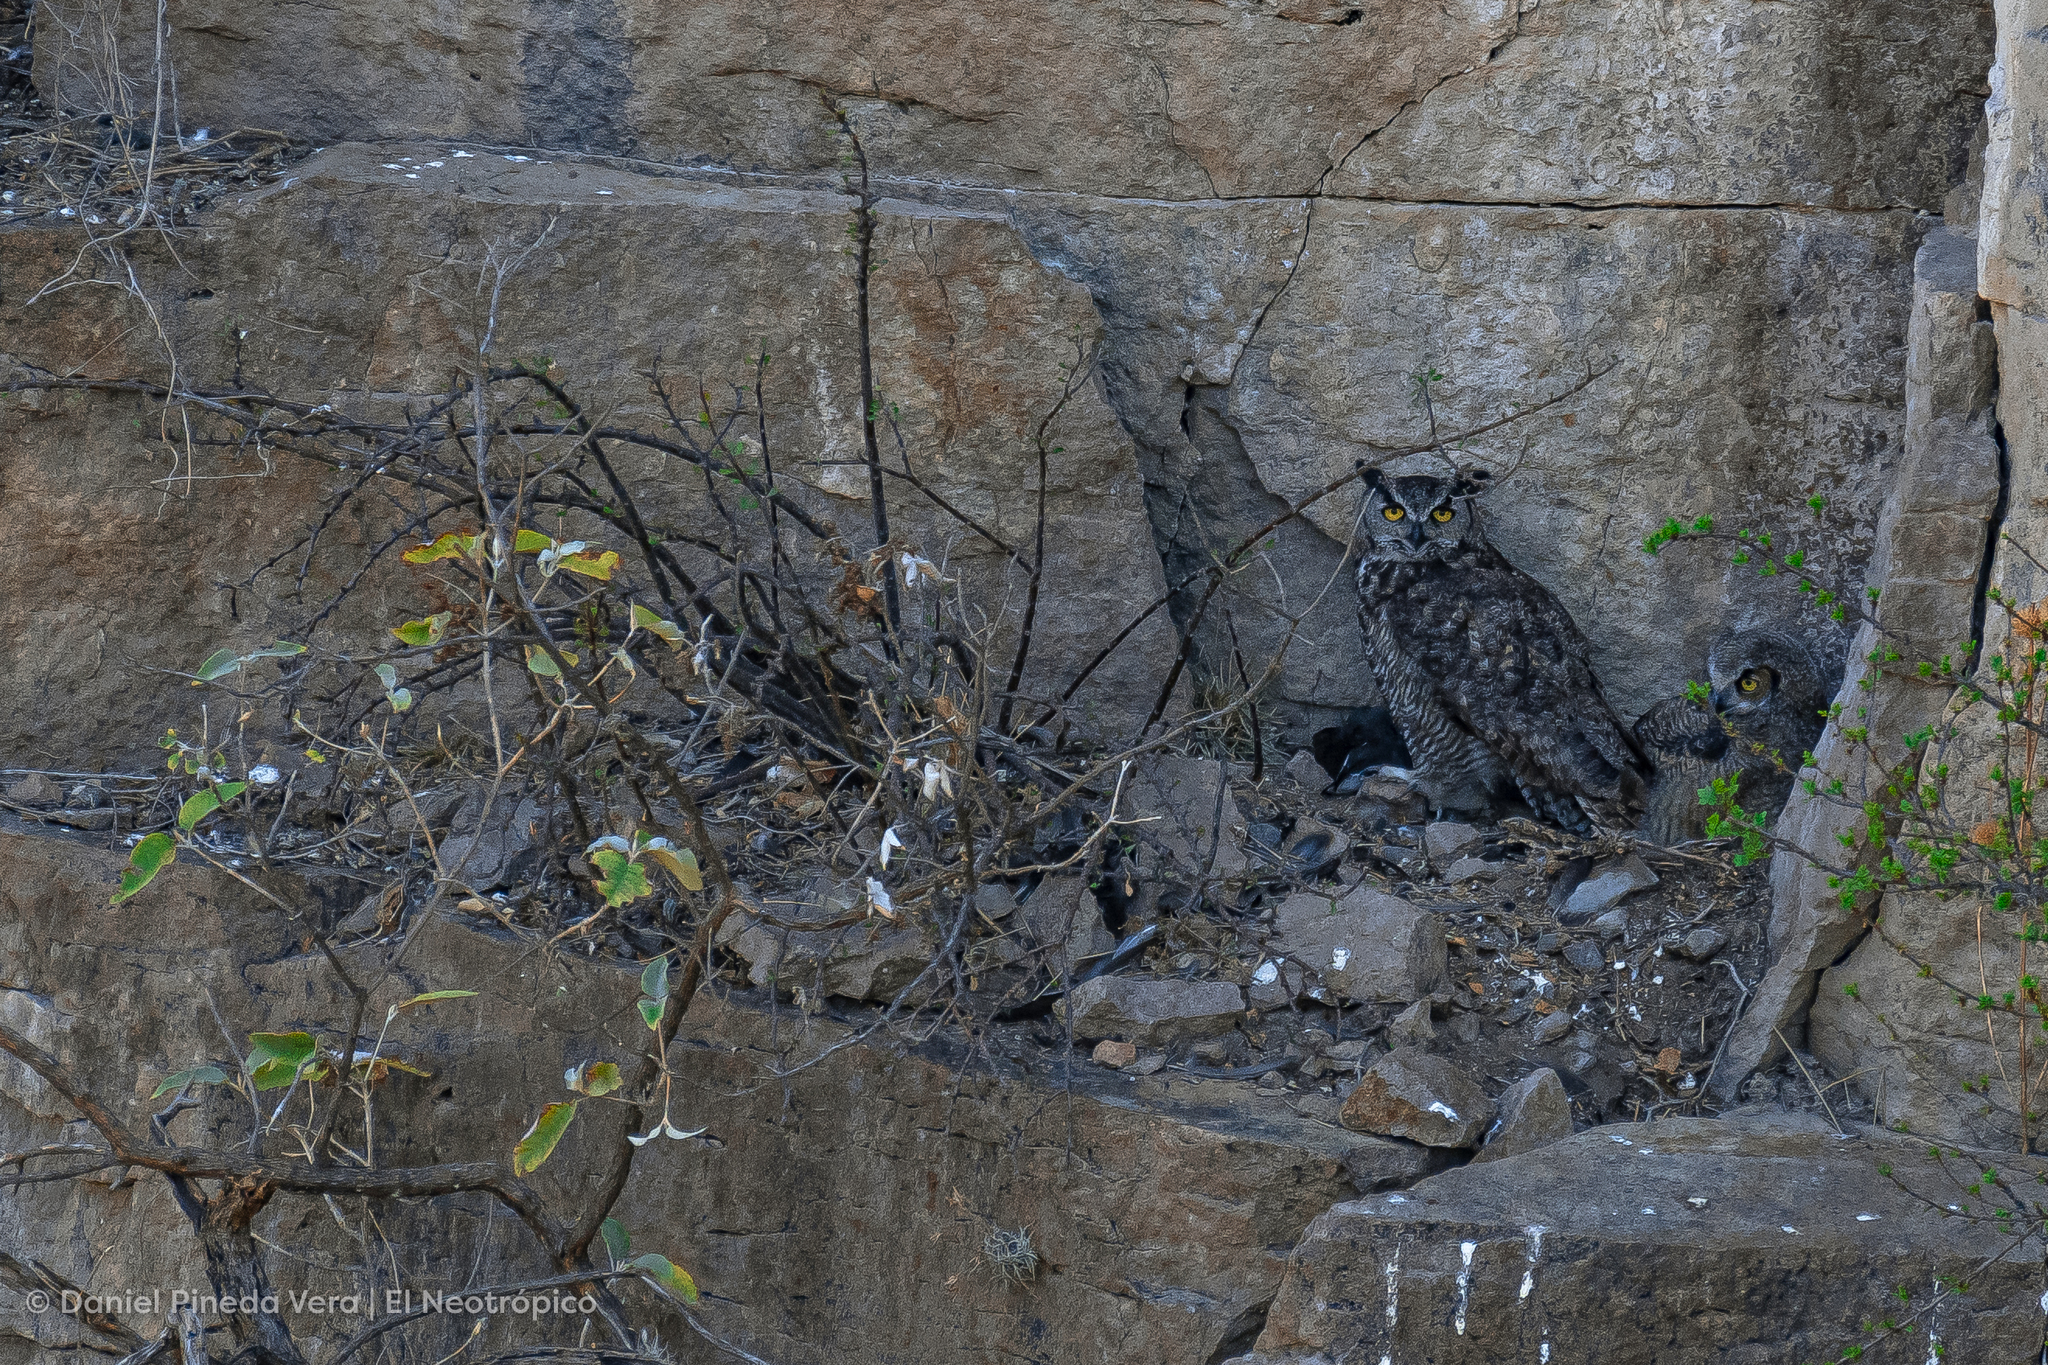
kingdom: Animalia
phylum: Chordata
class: Aves
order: Strigiformes
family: Strigidae
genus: Bubo
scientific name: Bubo virginianus
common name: Great horned owl
